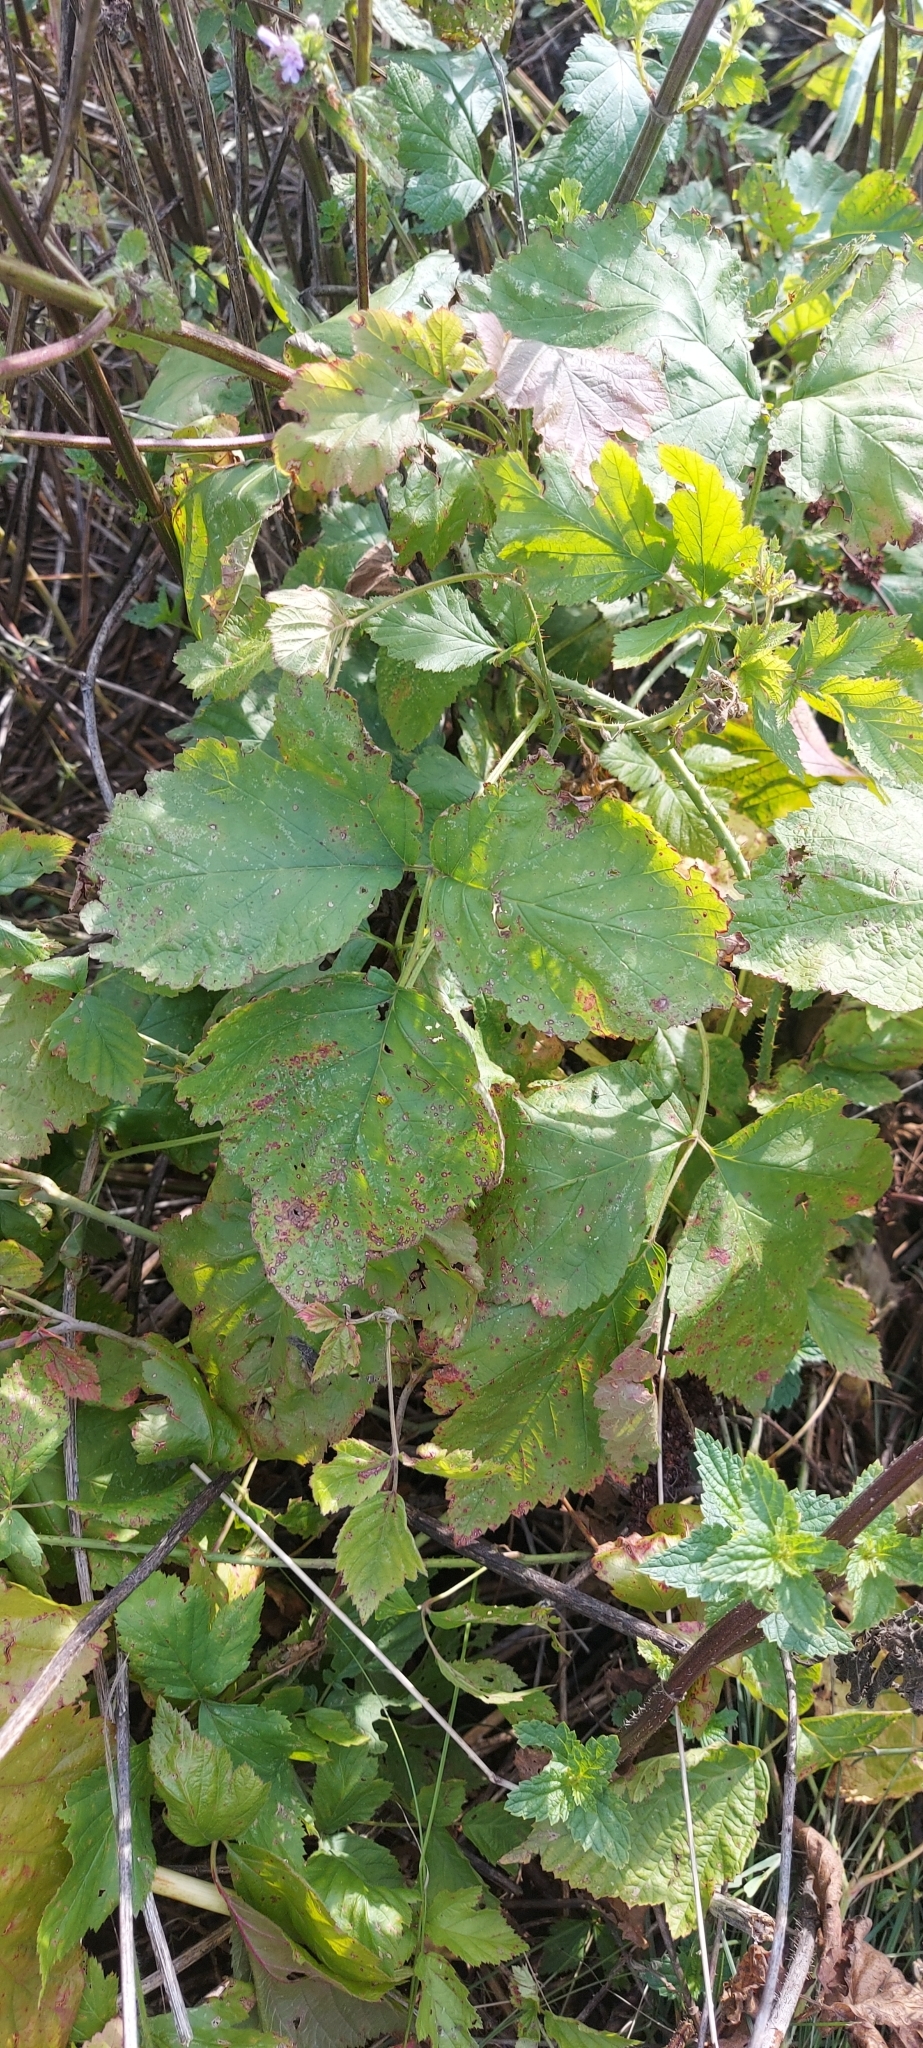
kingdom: Plantae
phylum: Tracheophyta
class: Magnoliopsida
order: Rosales
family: Rosaceae
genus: Rubus
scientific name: Rubus caesius
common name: Dewberry
